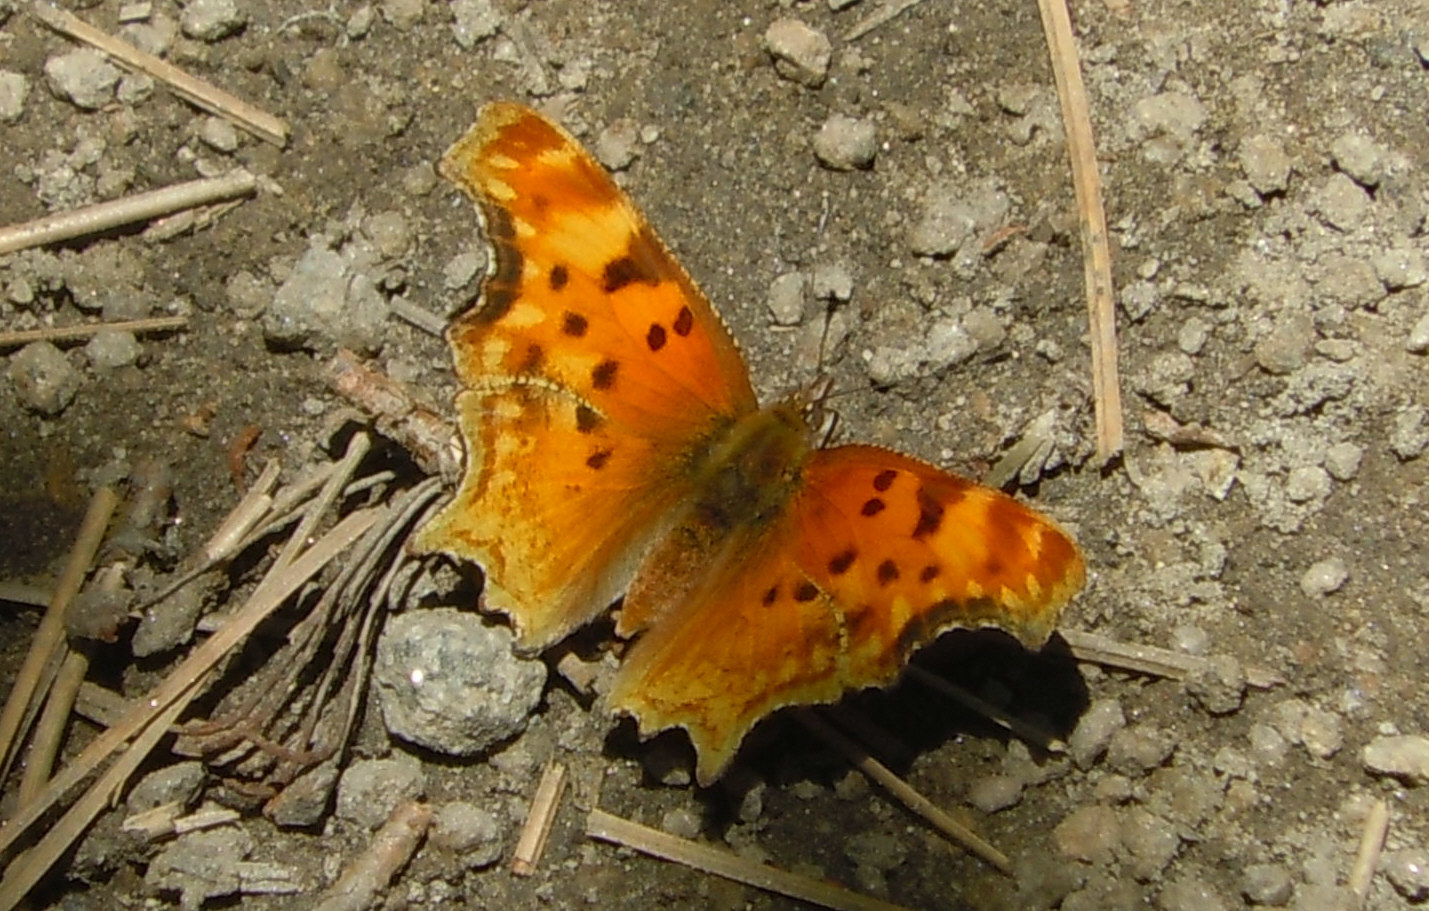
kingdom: Animalia
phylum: Arthropoda
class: Insecta
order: Lepidoptera
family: Nymphalidae
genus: Polygonia
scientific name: Polygonia gracilis
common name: Hoary comma
